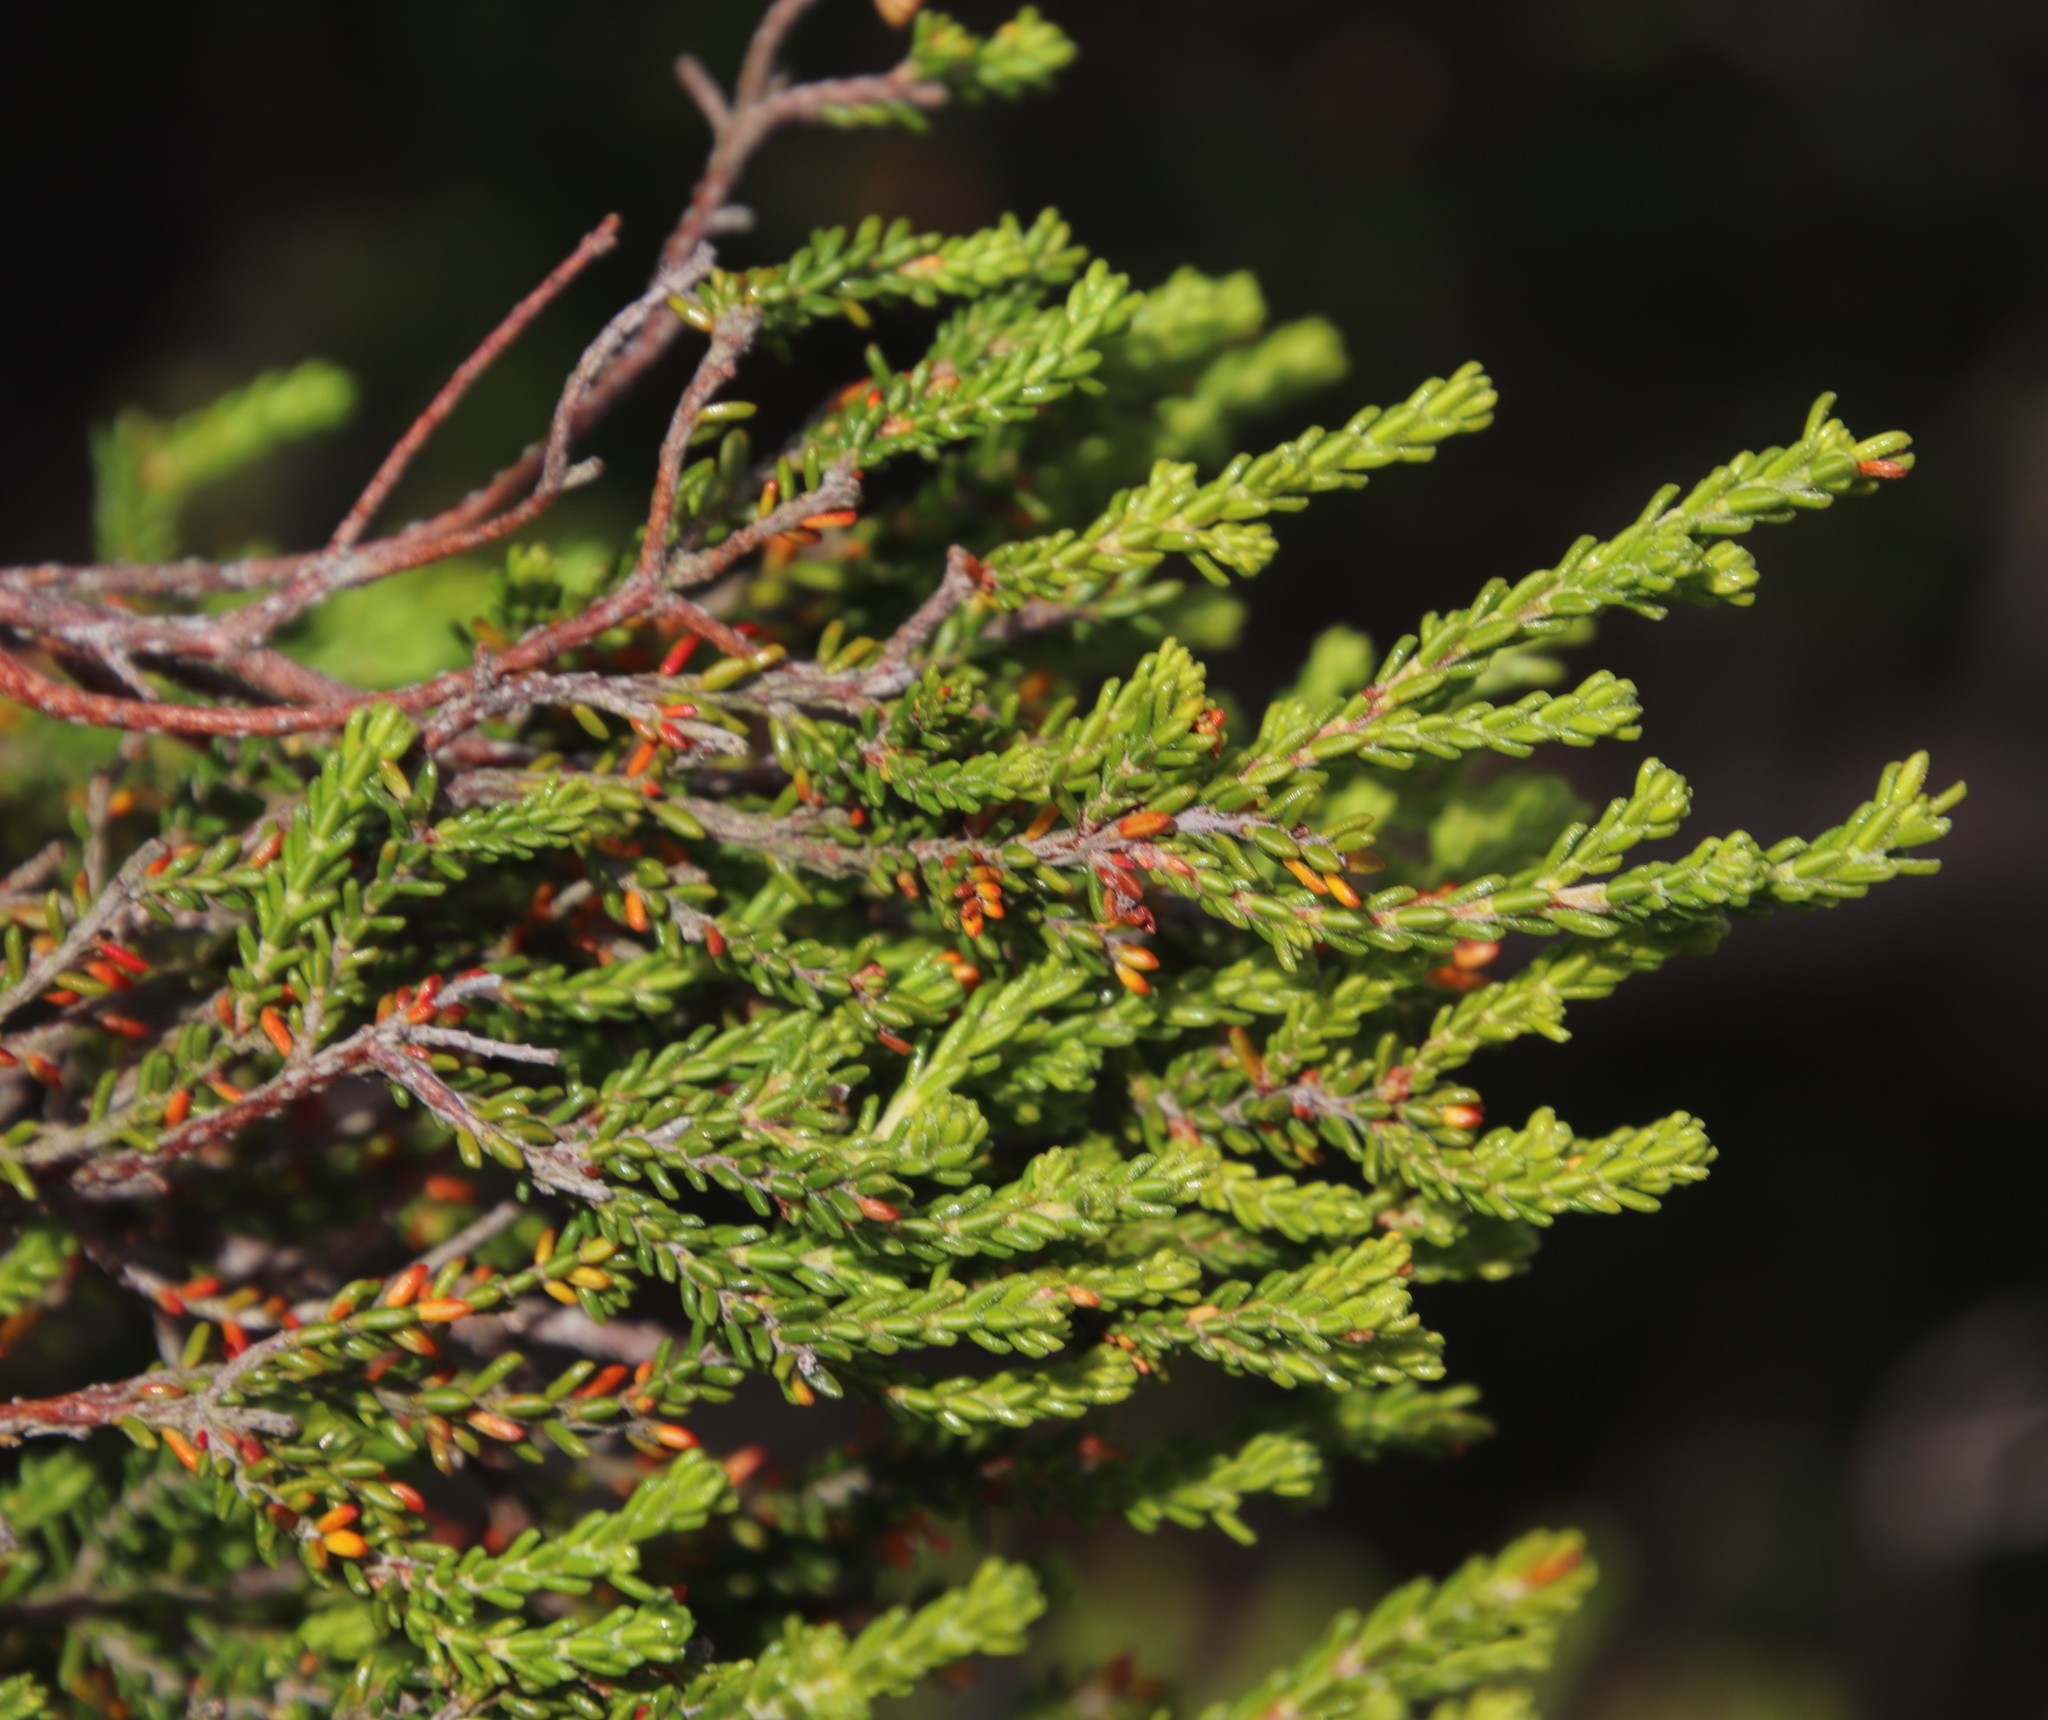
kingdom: Plantae
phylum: Tracheophyta
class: Magnoliopsida
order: Ericales
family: Ericaceae
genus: Erica
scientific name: Erica tristis
